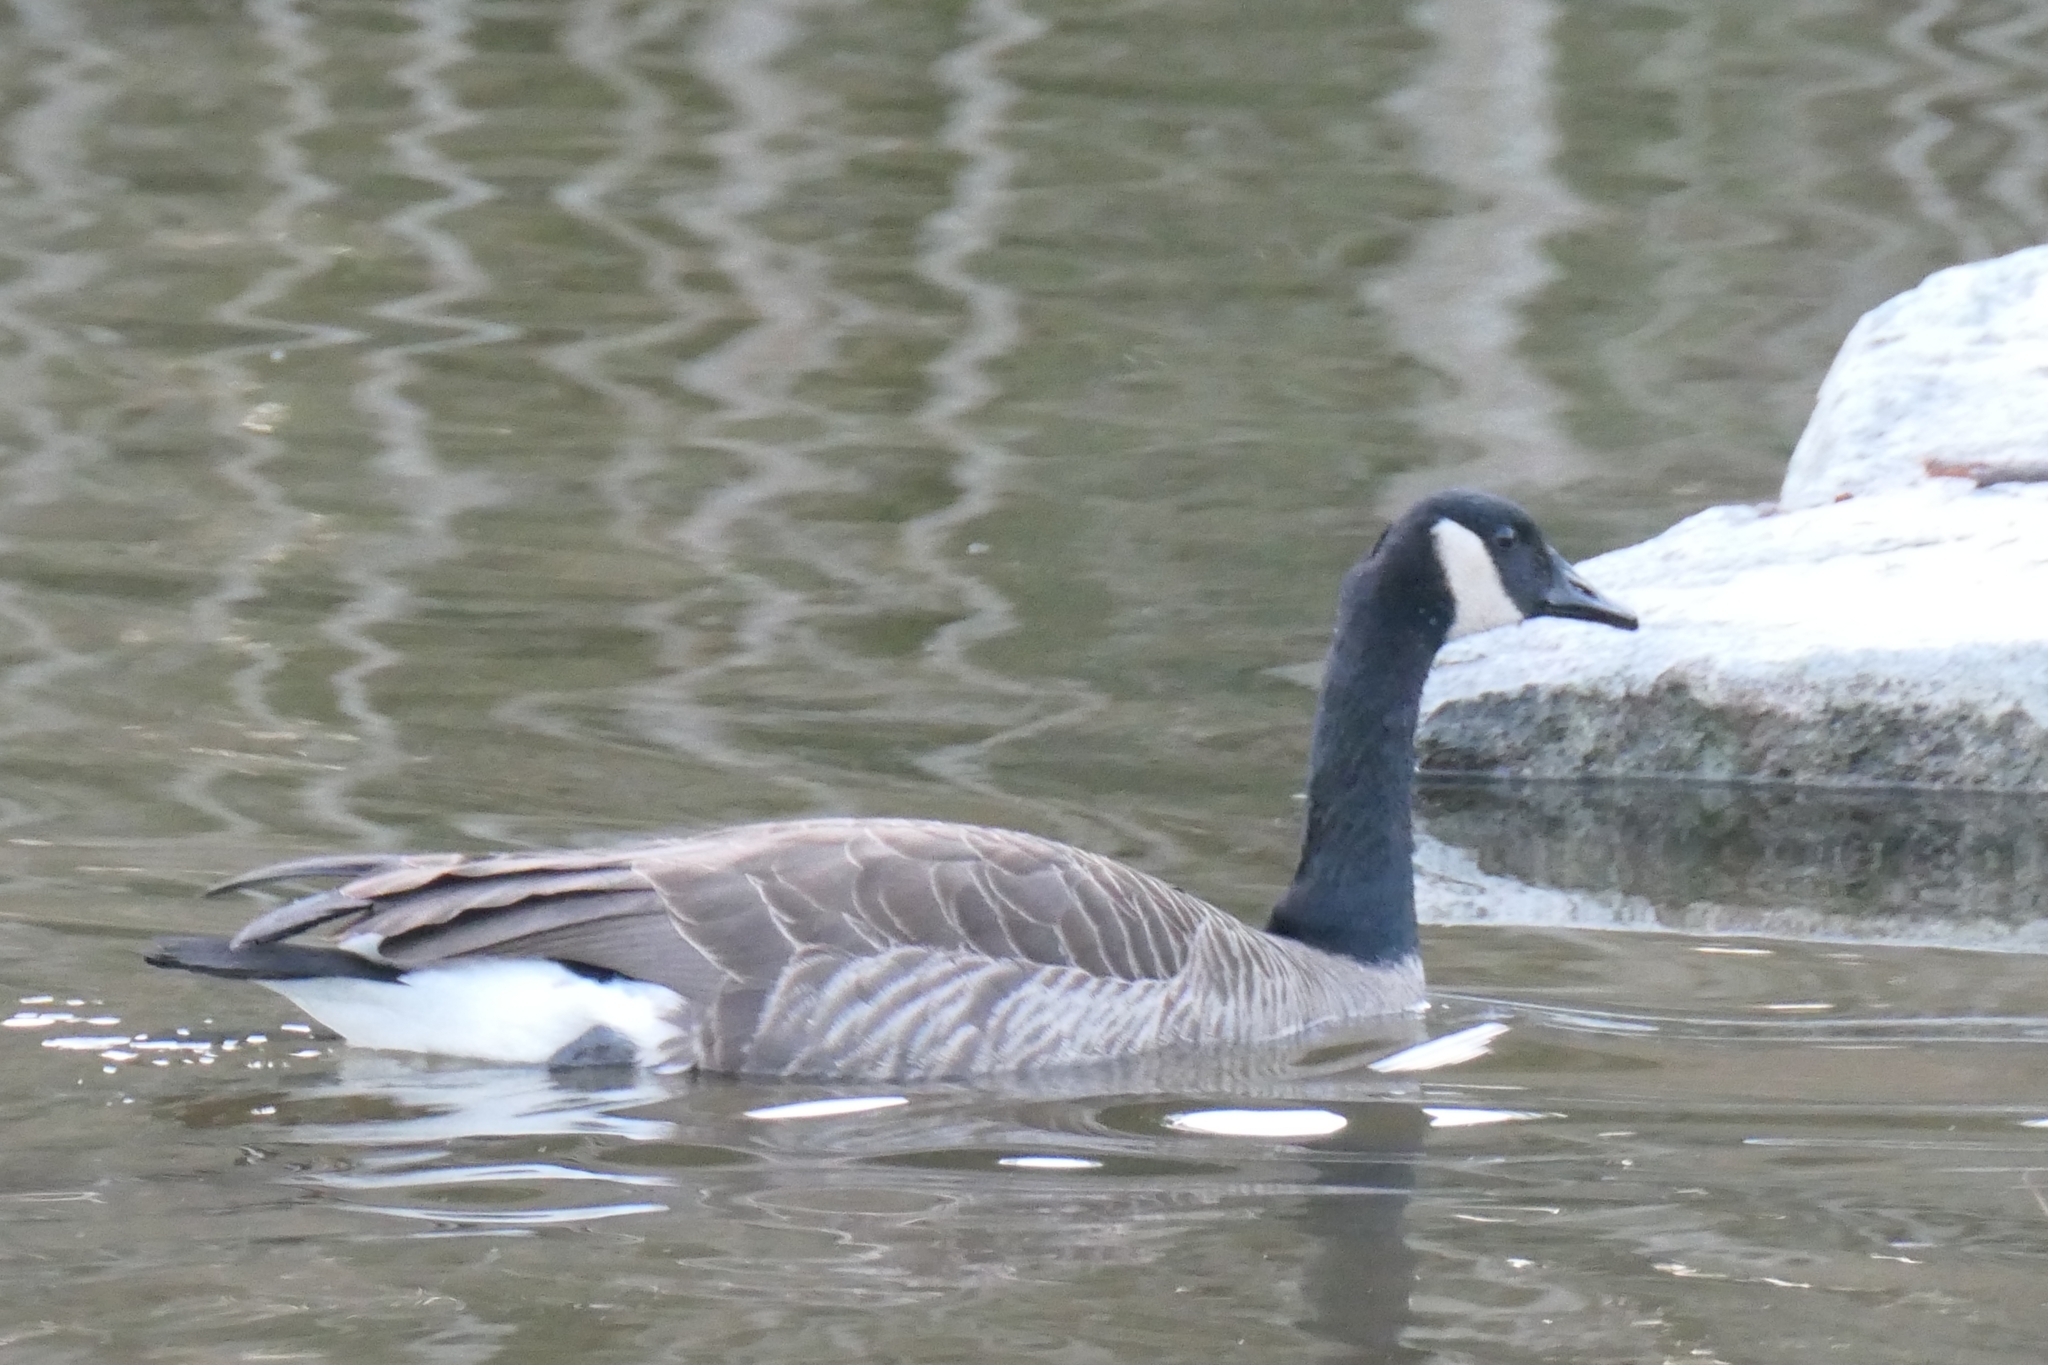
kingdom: Animalia
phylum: Chordata
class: Aves
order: Anseriformes
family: Anatidae
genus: Branta
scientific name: Branta canadensis
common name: Canada goose
